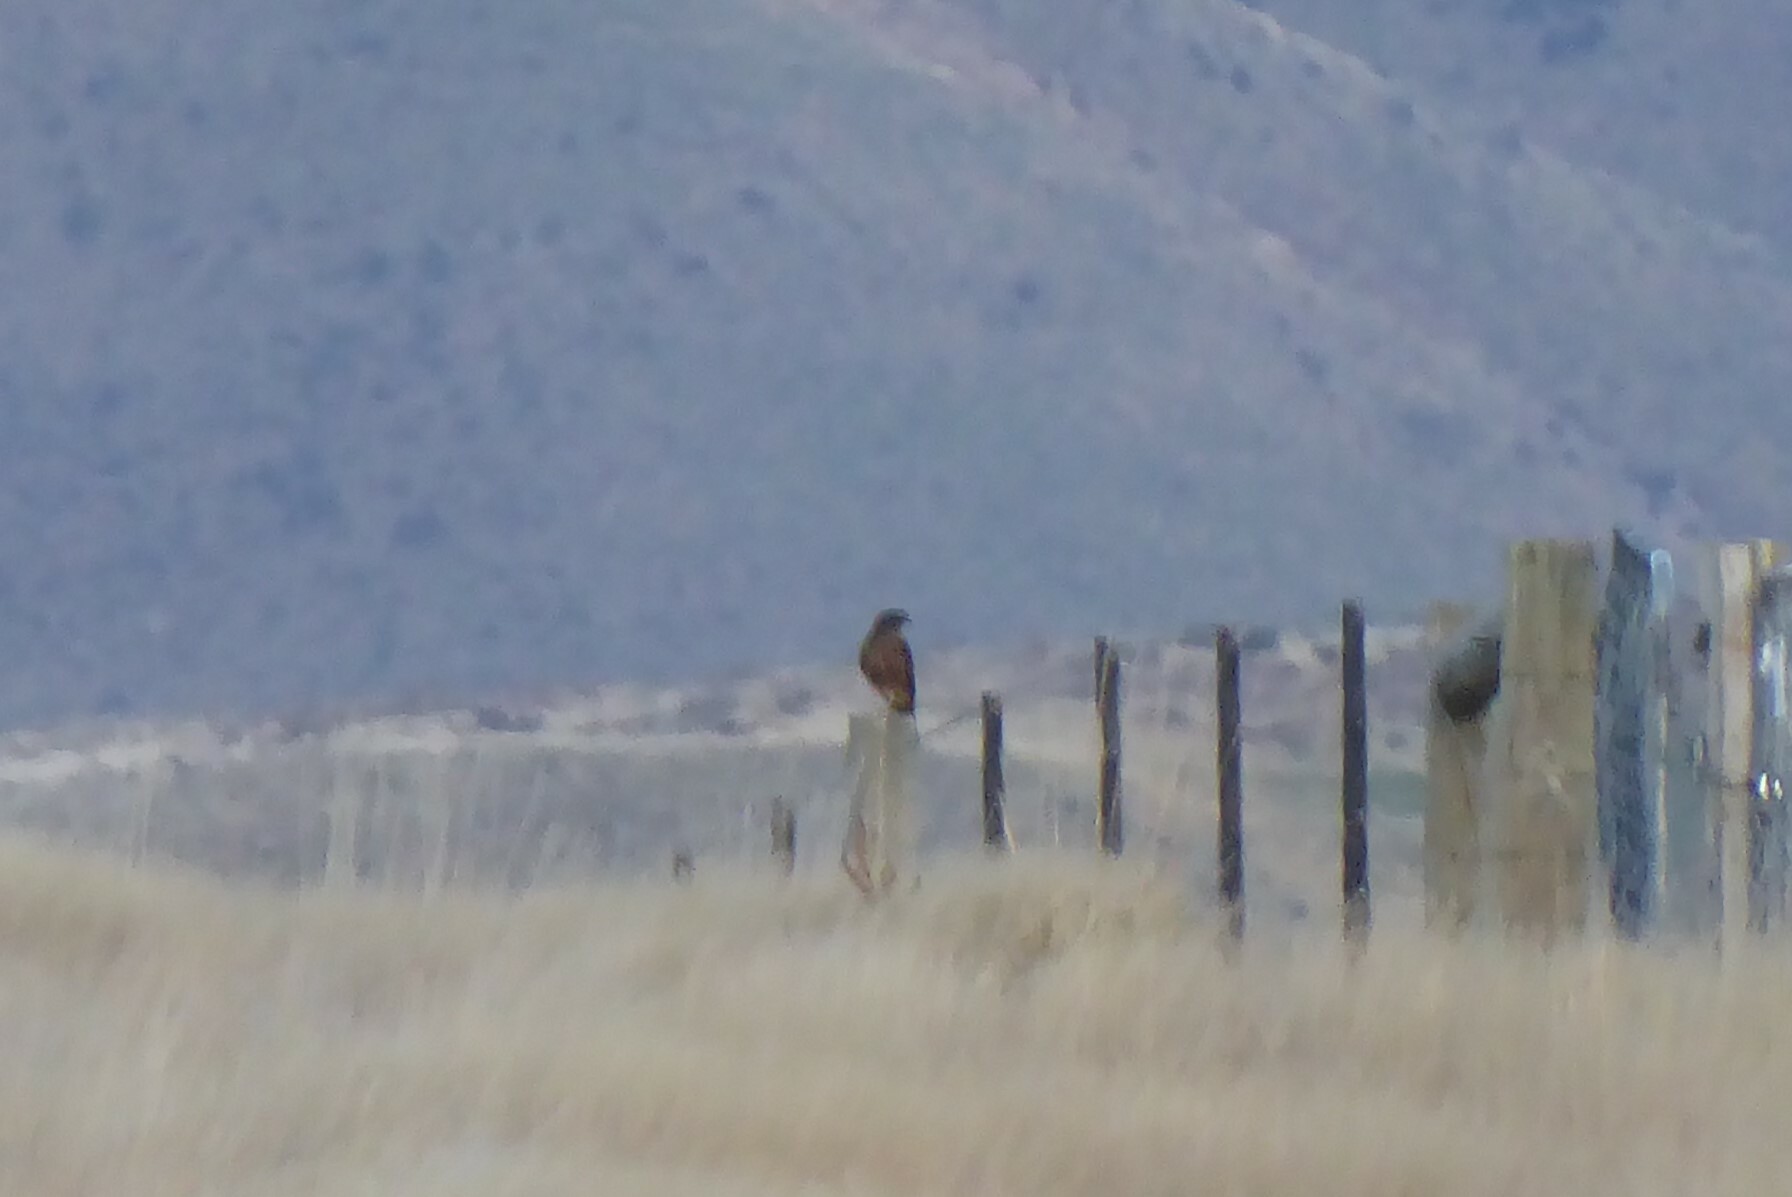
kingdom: Animalia
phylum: Chordata
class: Aves
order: Falconiformes
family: Falconidae
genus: Falco
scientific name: Falco novaeseelandiae
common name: New zealand falcon
